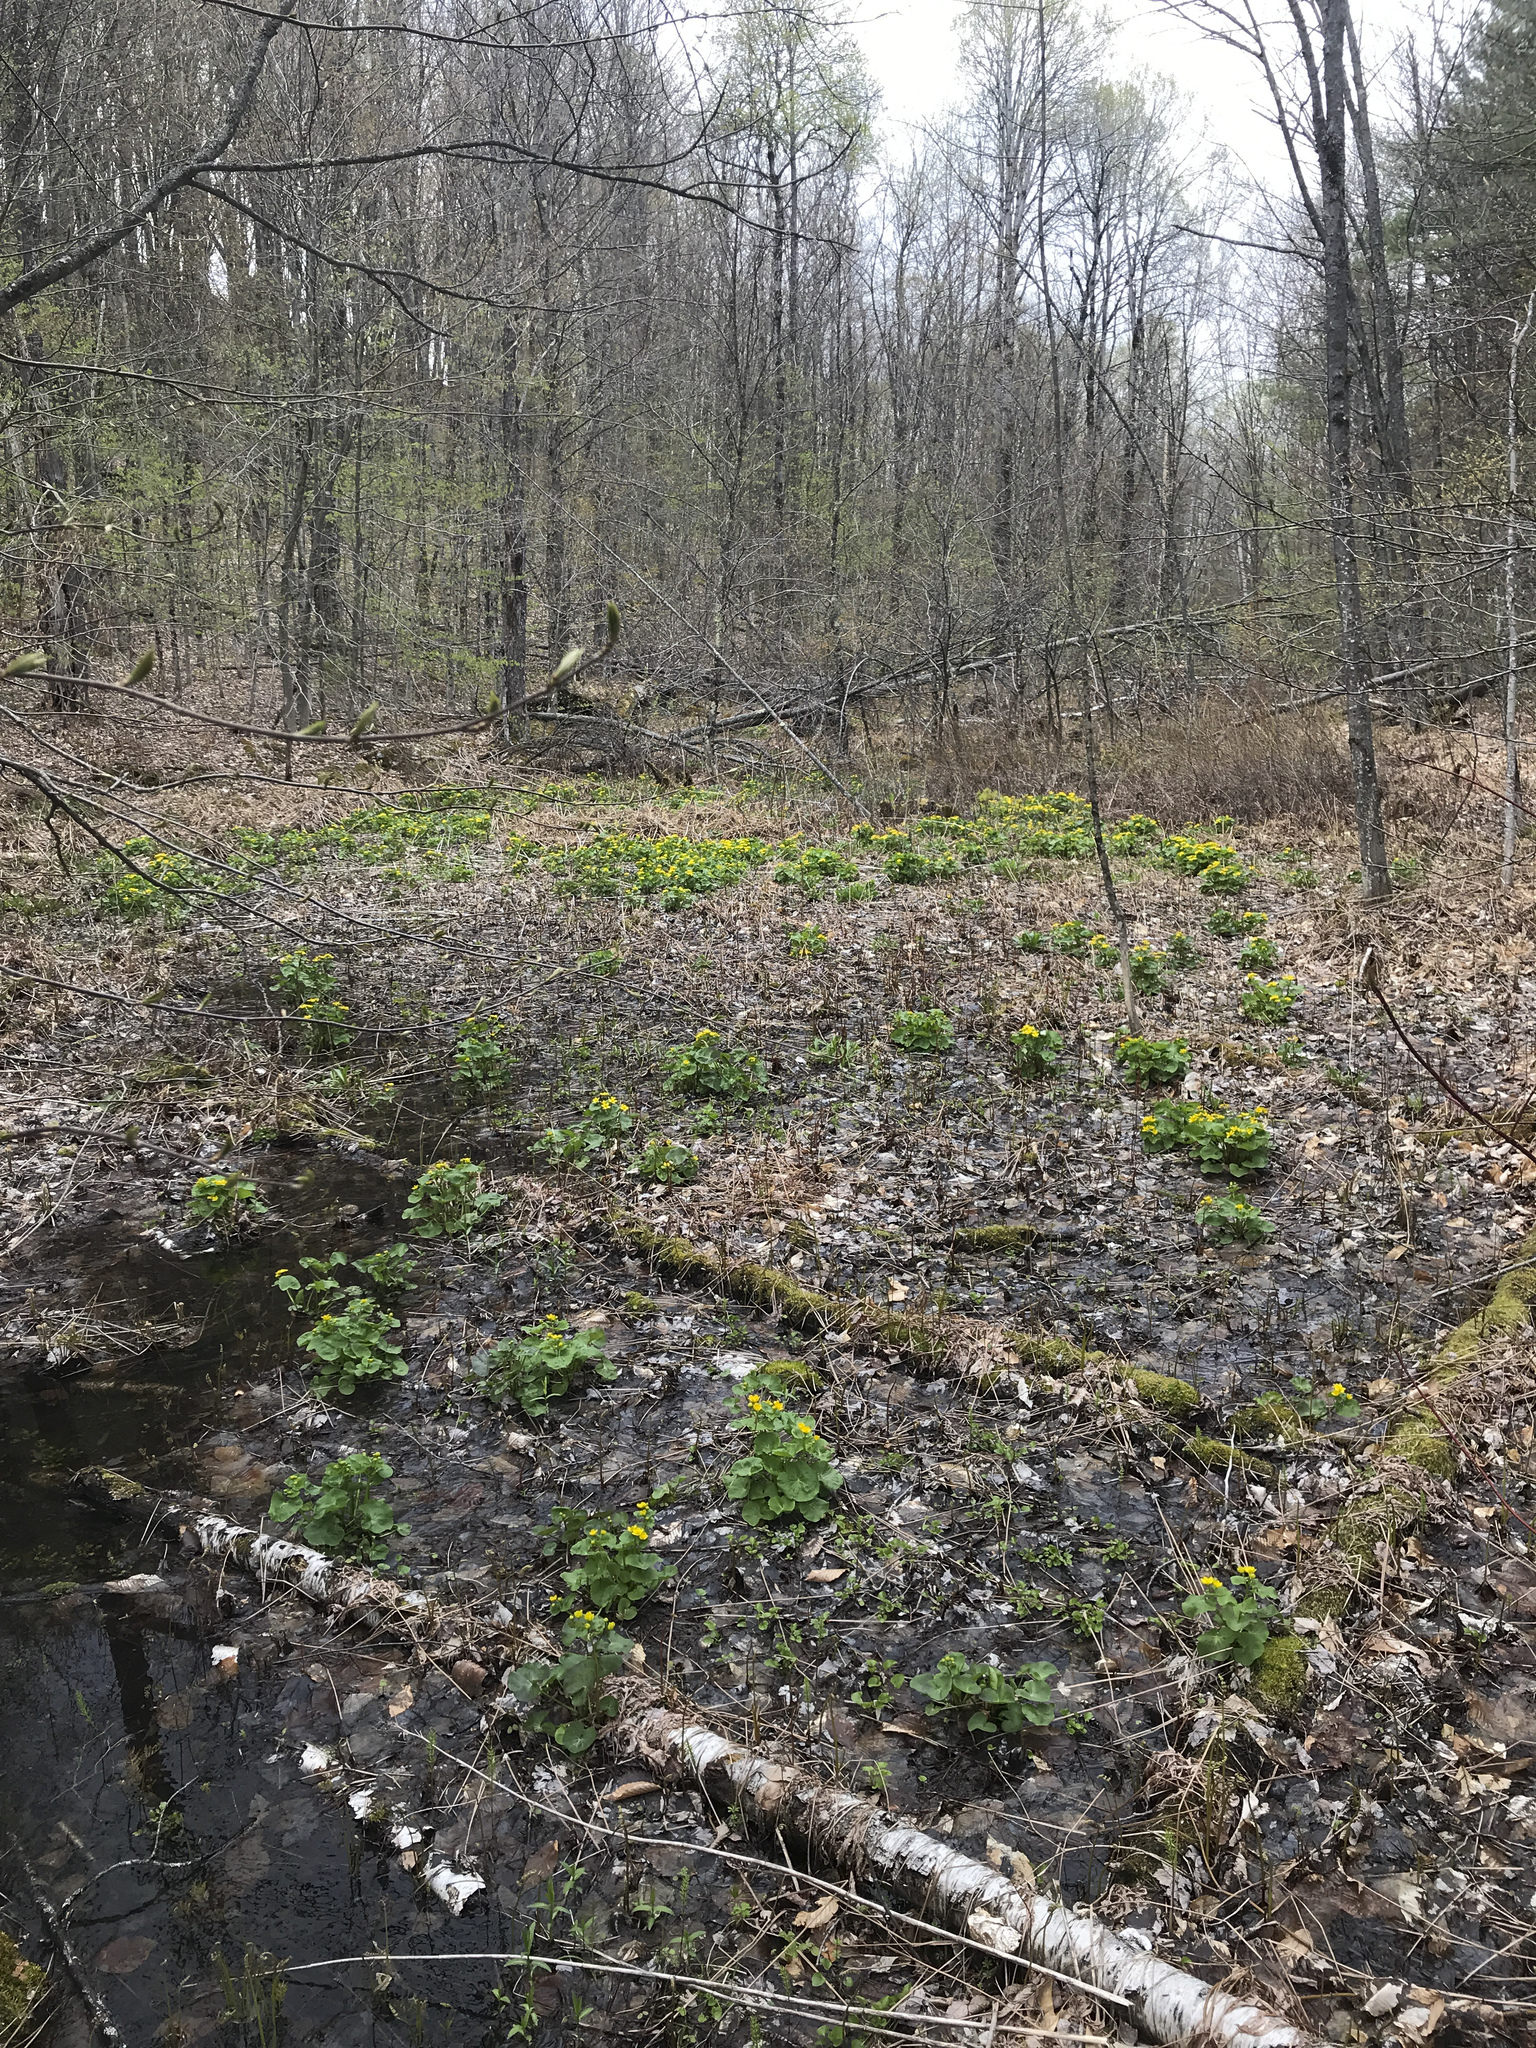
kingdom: Plantae
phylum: Tracheophyta
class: Magnoliopsida
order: Ranunculales
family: Ranunculaceae
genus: Caltha
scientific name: Caltha palustris
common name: Marsh marigold
